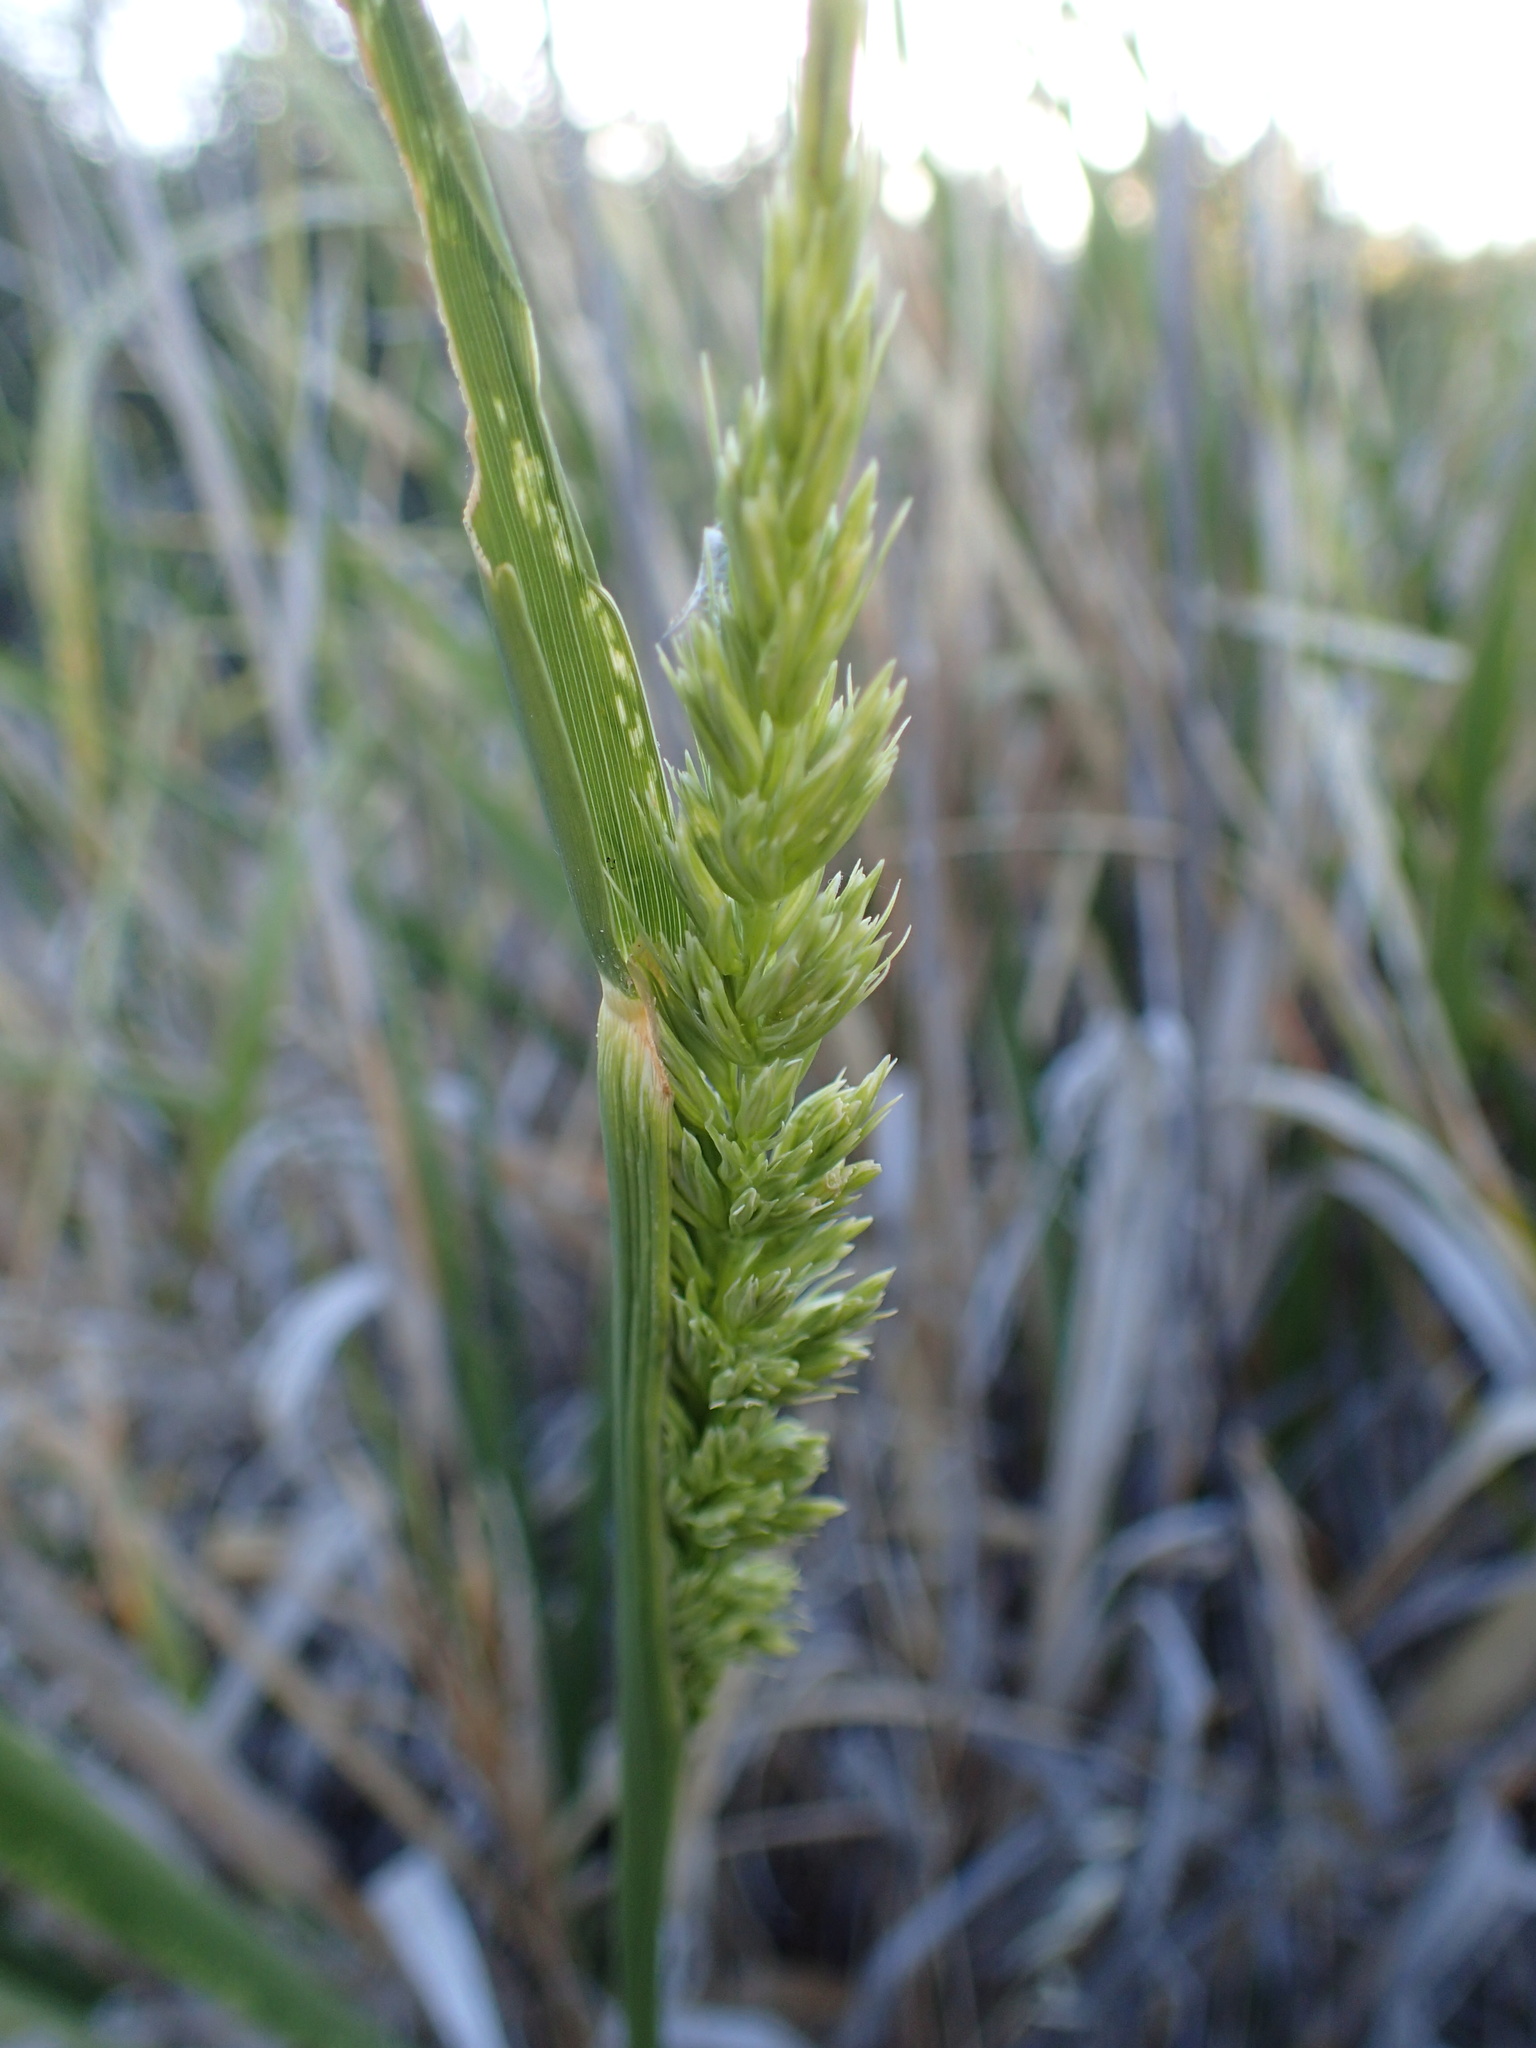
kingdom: Plantae
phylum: Tracheophyta
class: Liliopsida
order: Poales
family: Poaceae
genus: Leymus
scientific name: Leymus condensatus
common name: Giant wild rye
